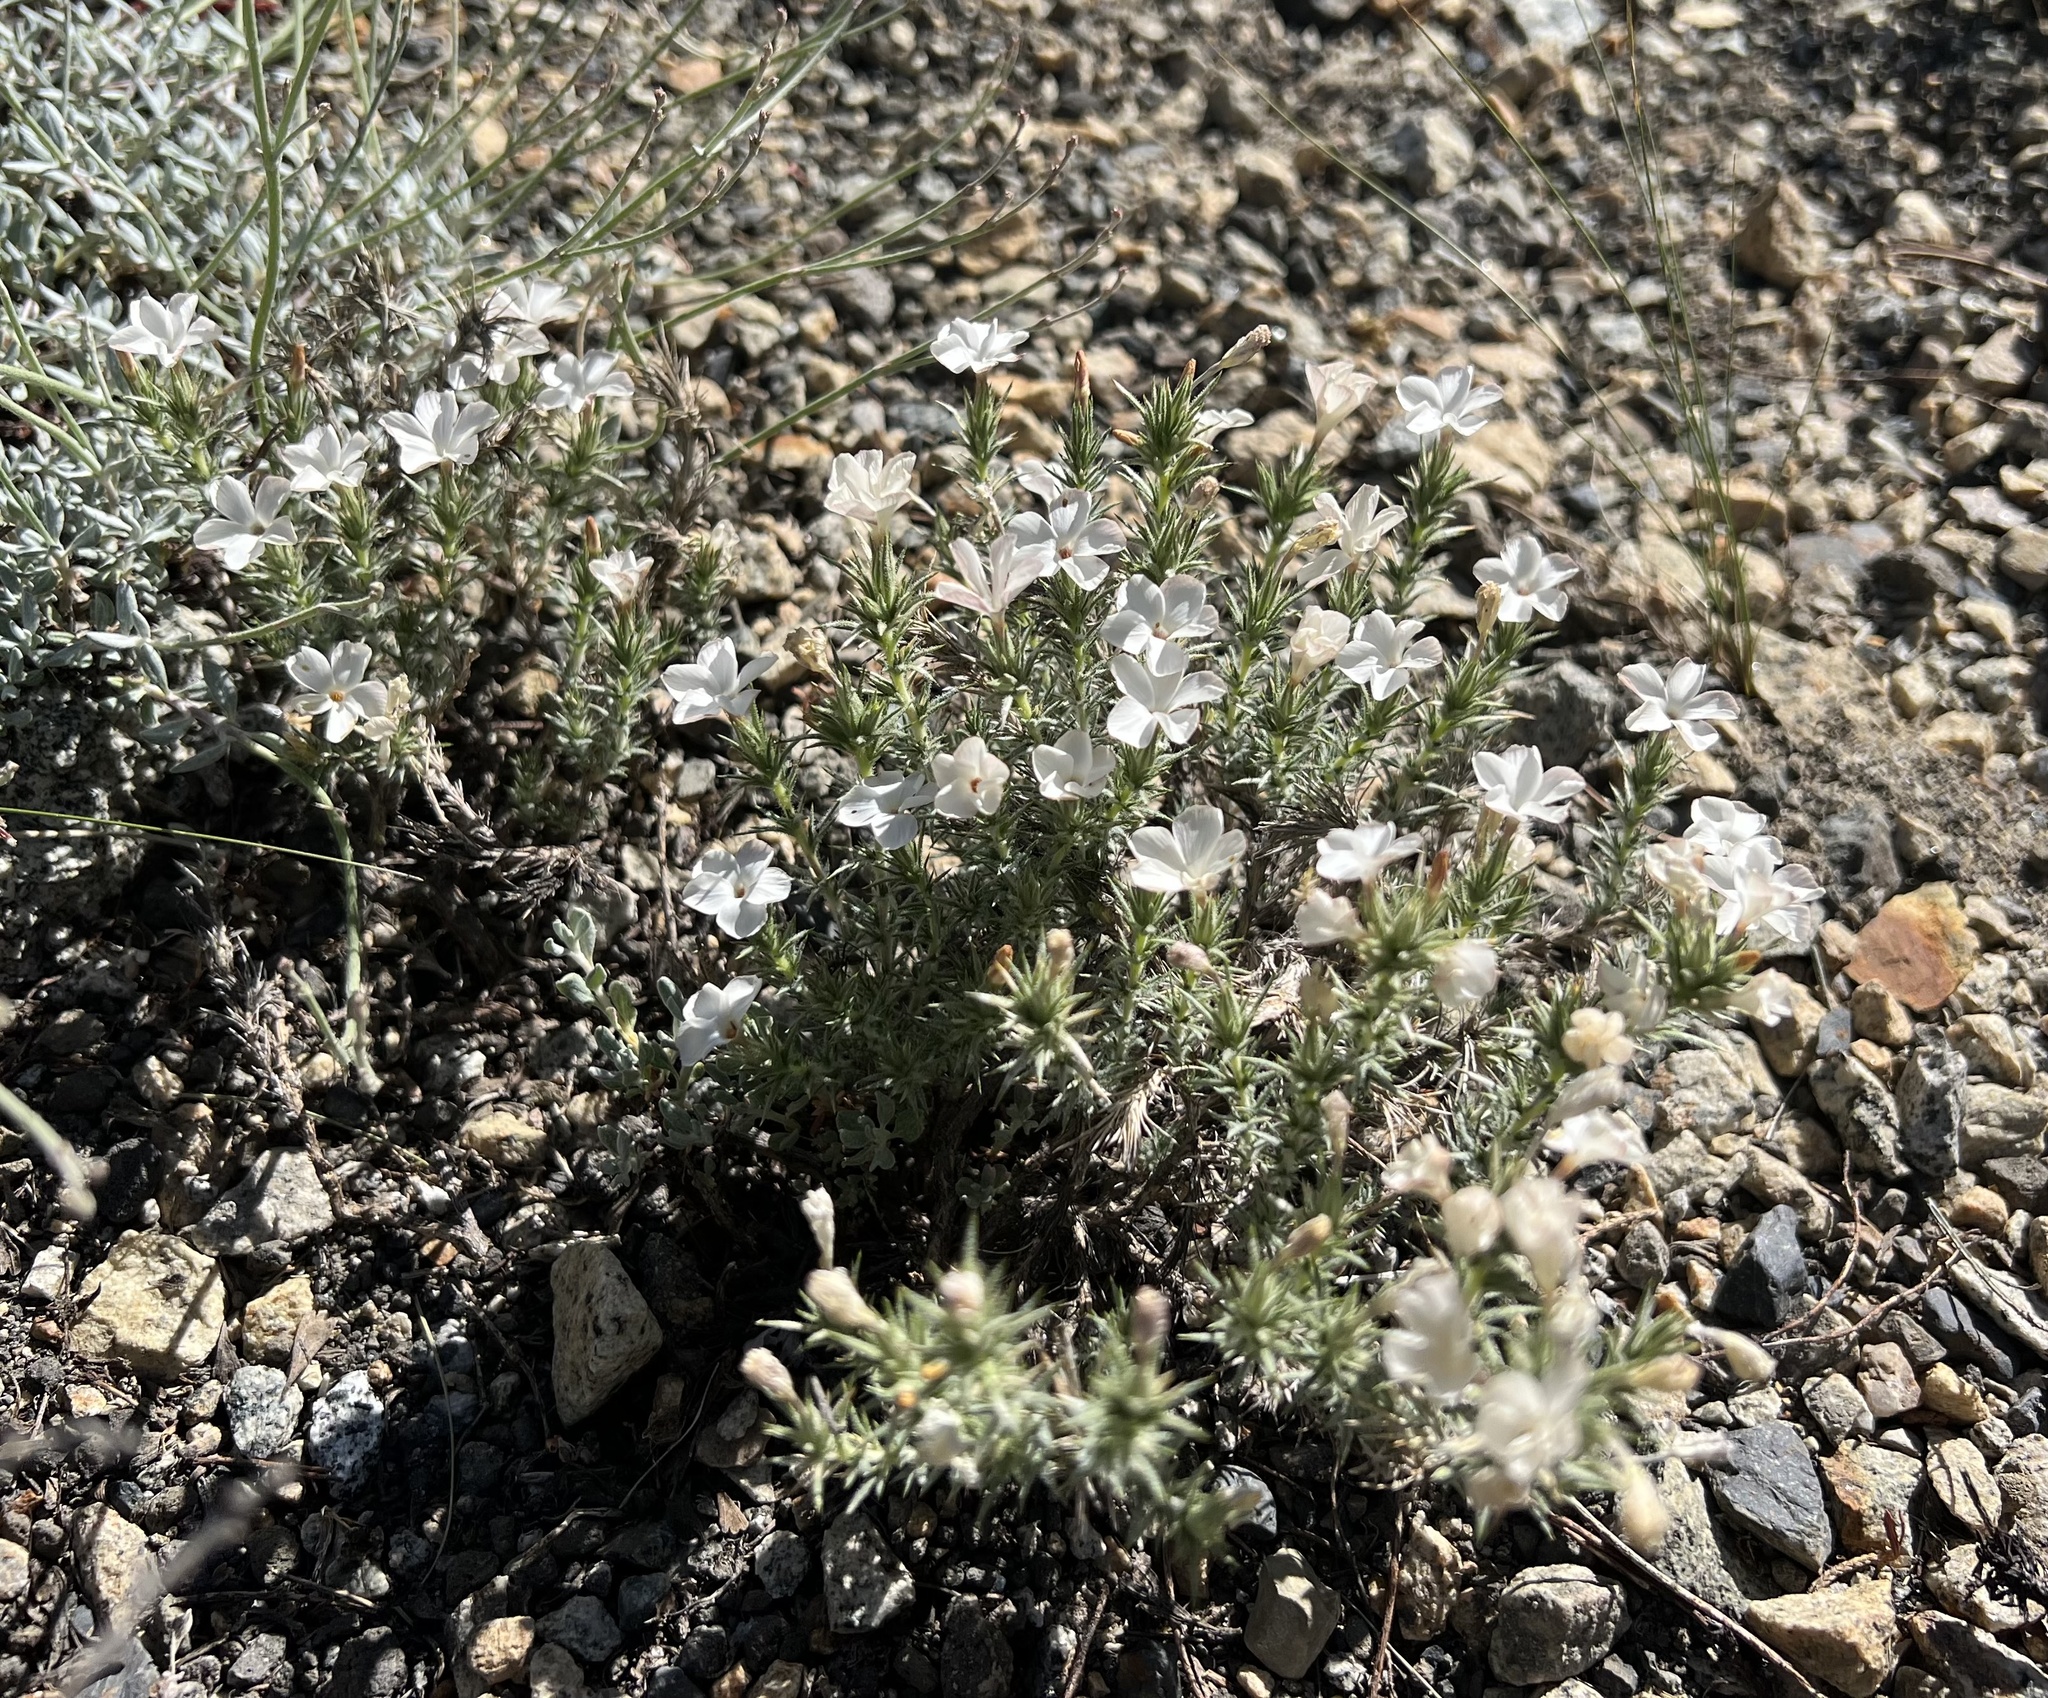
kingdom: Plantae
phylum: Tracheophyta
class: Magnoliopsida
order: Ericales
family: Polemoniaceae
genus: Linanthus
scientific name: Linanthus pungens
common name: Granite prickly phlox
